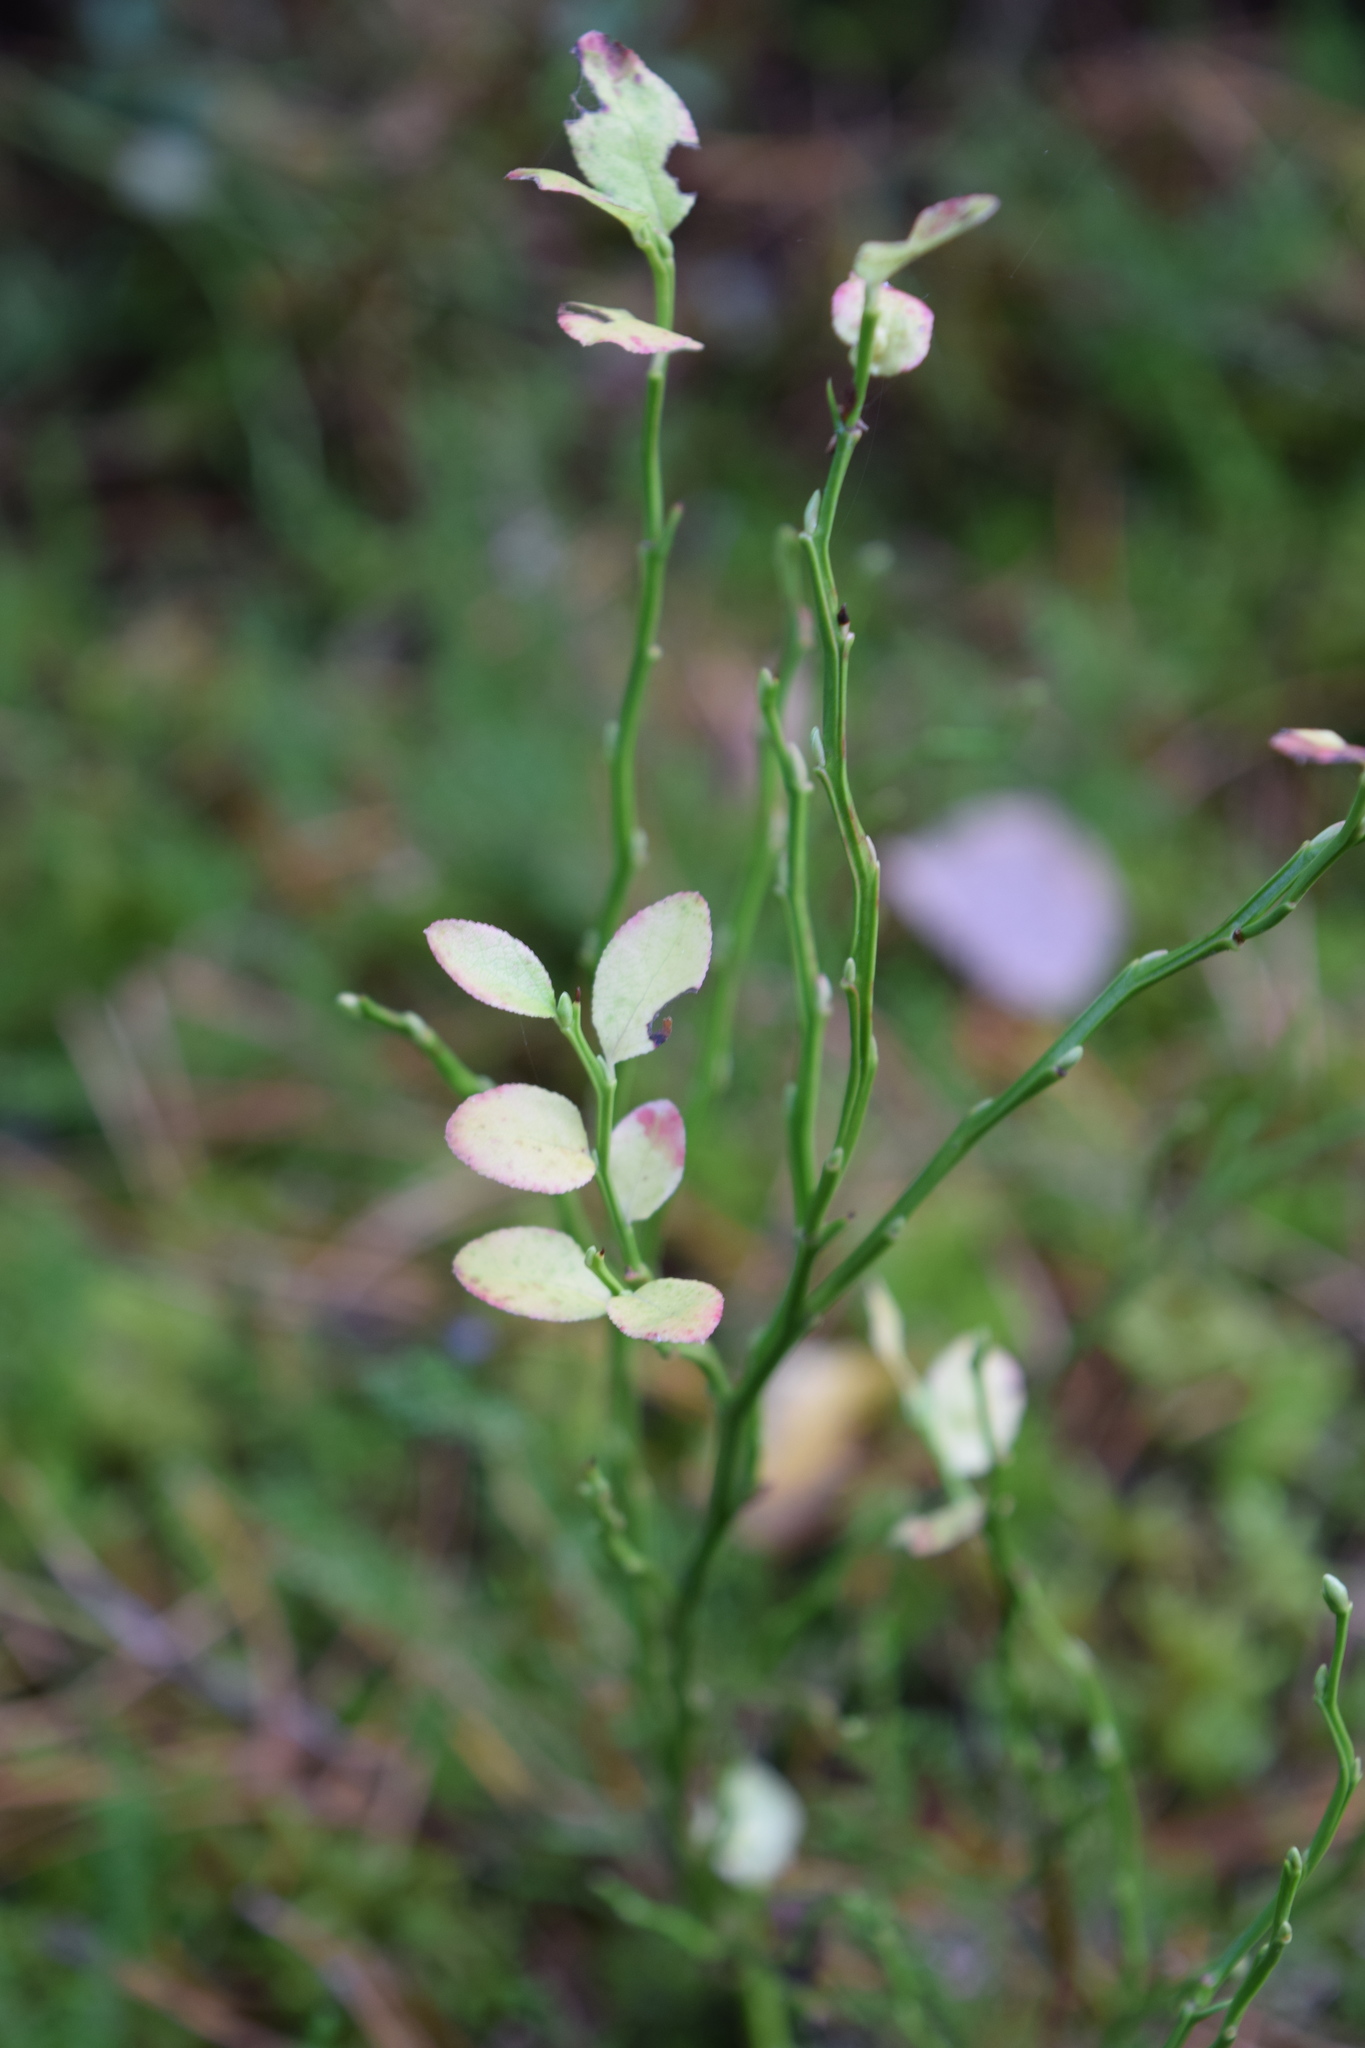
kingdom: Plantae
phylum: Tracheophyta
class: Magnoliopsida
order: Ericales
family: Ericaceae
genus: Vaccinium
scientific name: Vaccinium myrtillus
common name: Bilberry
